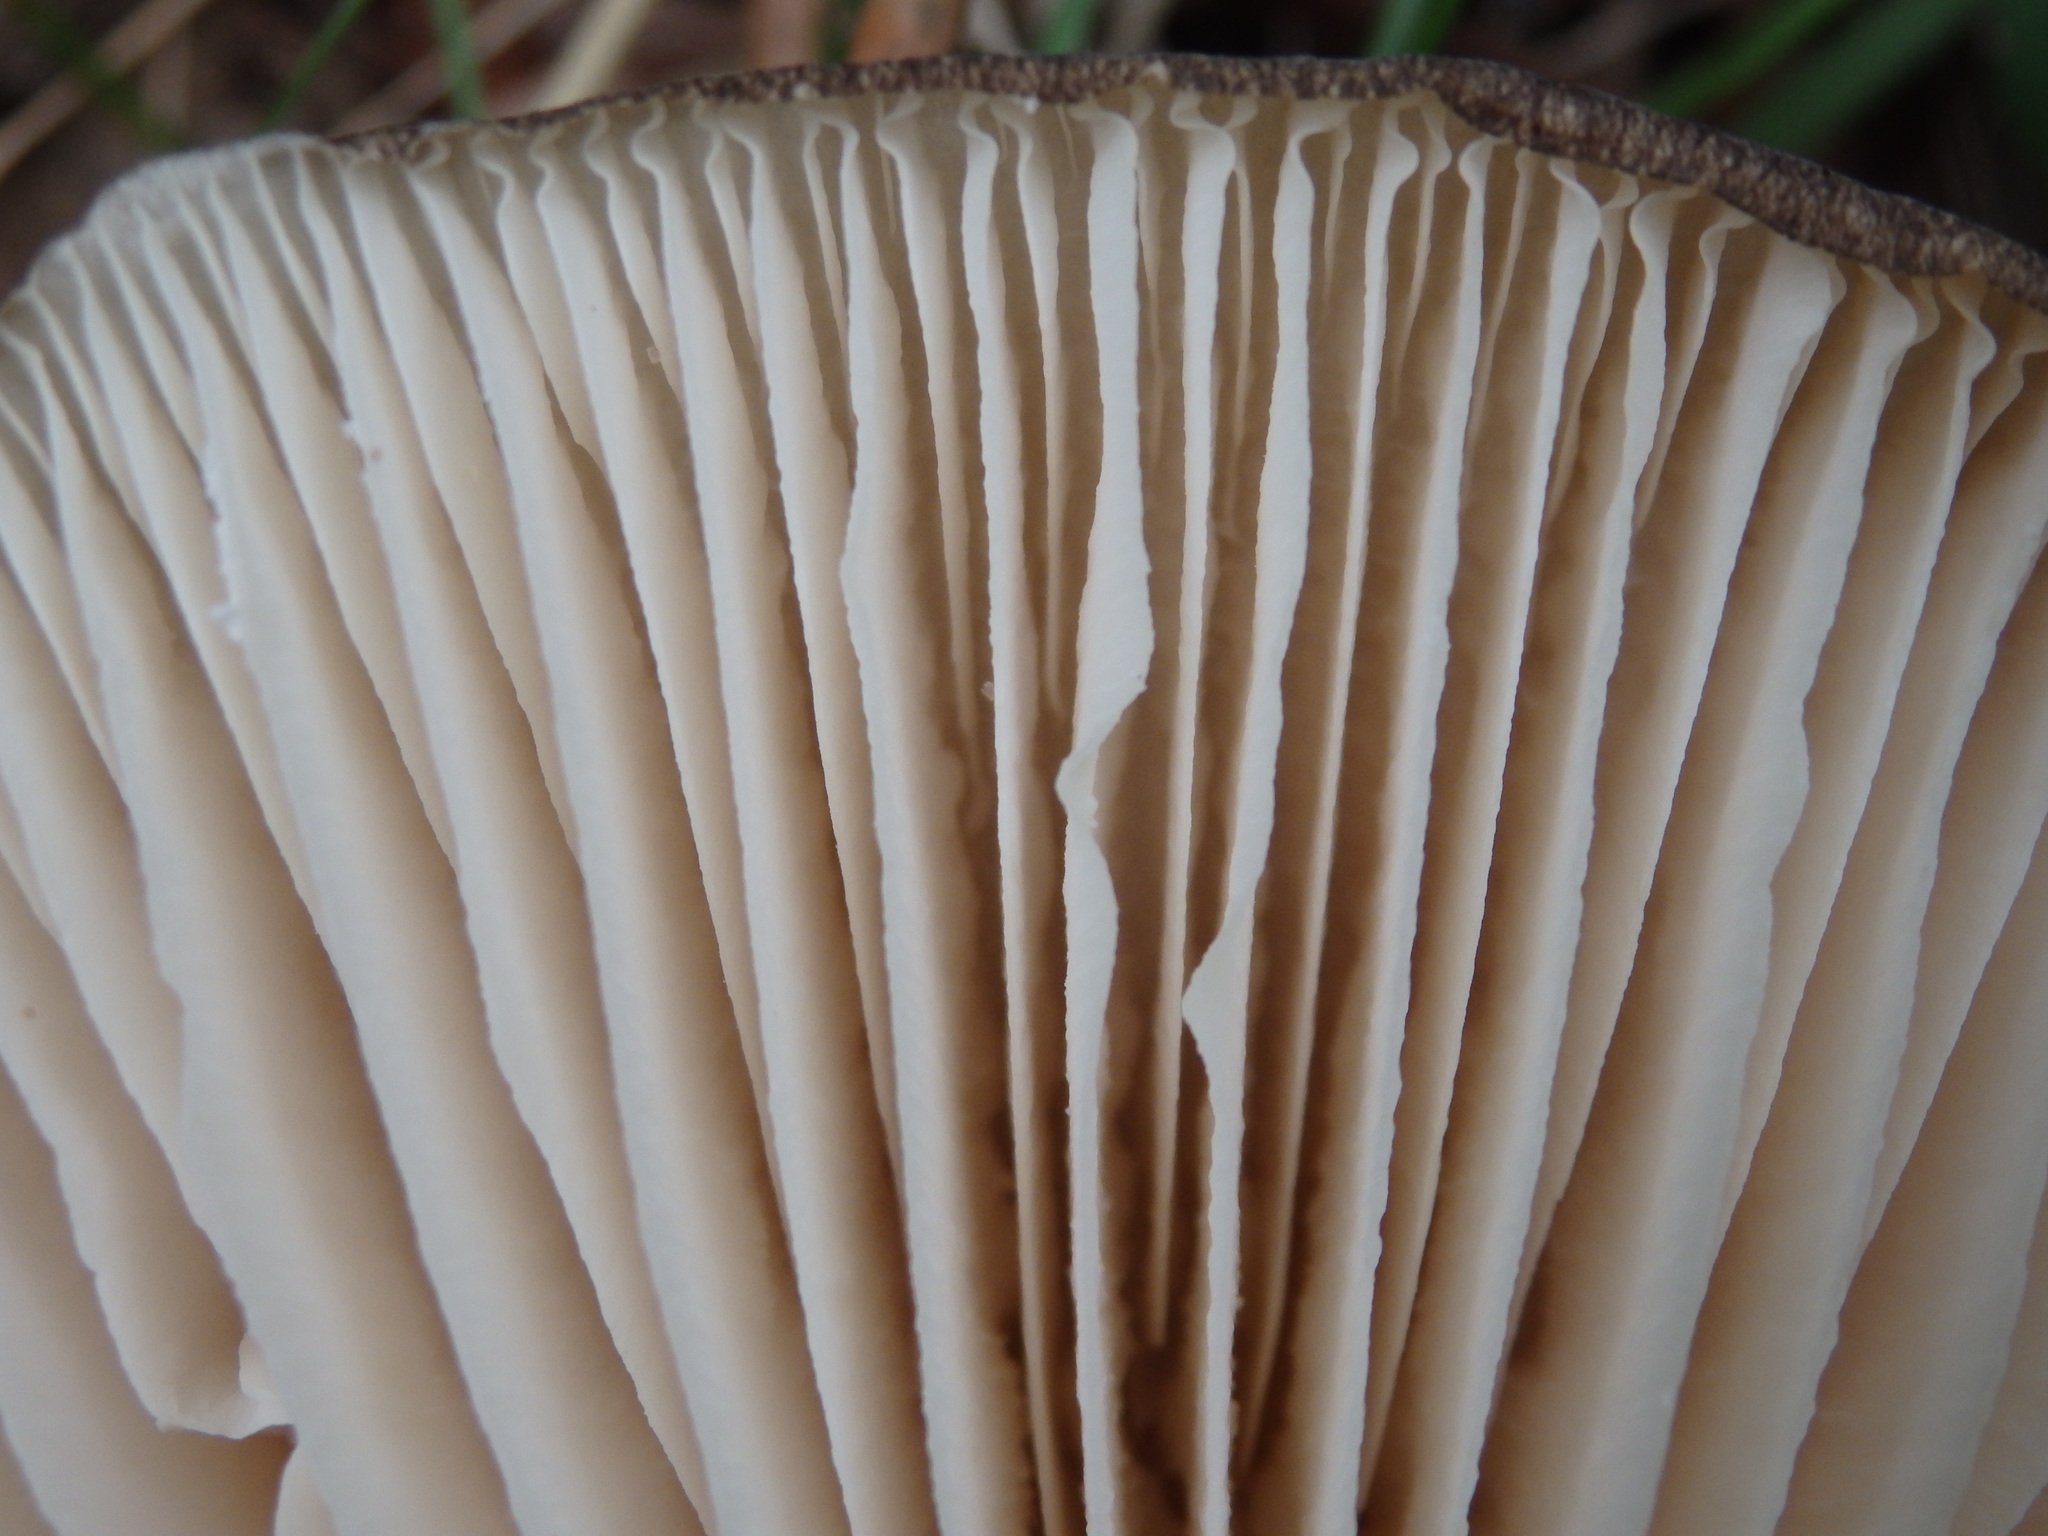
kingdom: Fungi
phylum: Basidiomycota
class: Agaricomycetes
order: Agaricales
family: Tricholomataceae
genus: Megacollybia
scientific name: Megacollybia platyphylla
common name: Whitelaced shank
